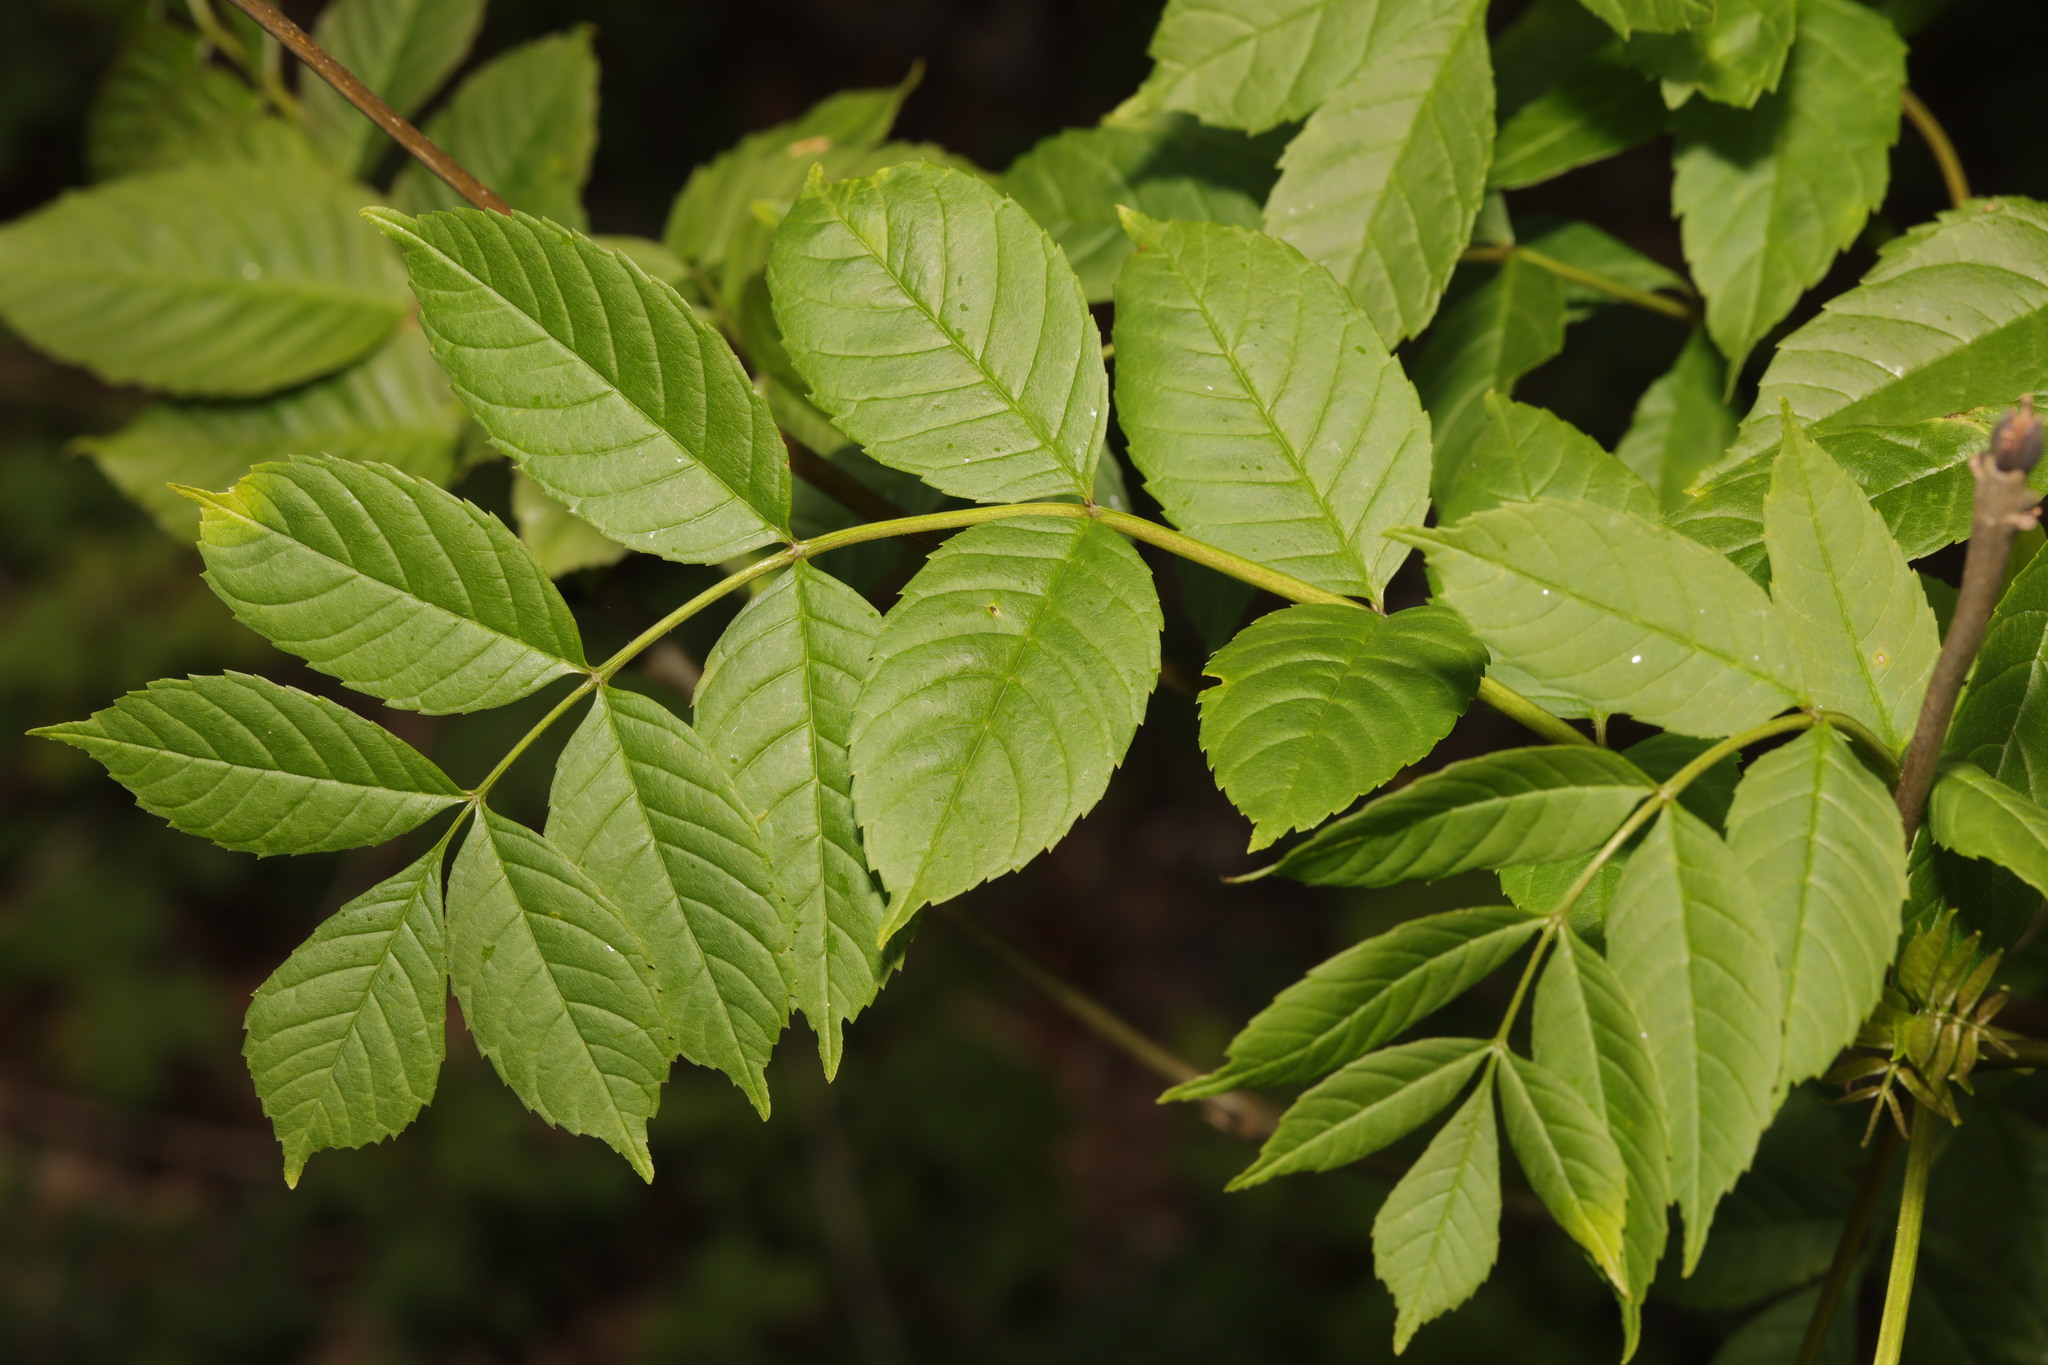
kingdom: Plantae
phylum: Tracheophyta
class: Magnoliopsida
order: Lamiales
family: Oleaceae
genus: Fraxinus
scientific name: Fraxinus excelsior
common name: European ash
